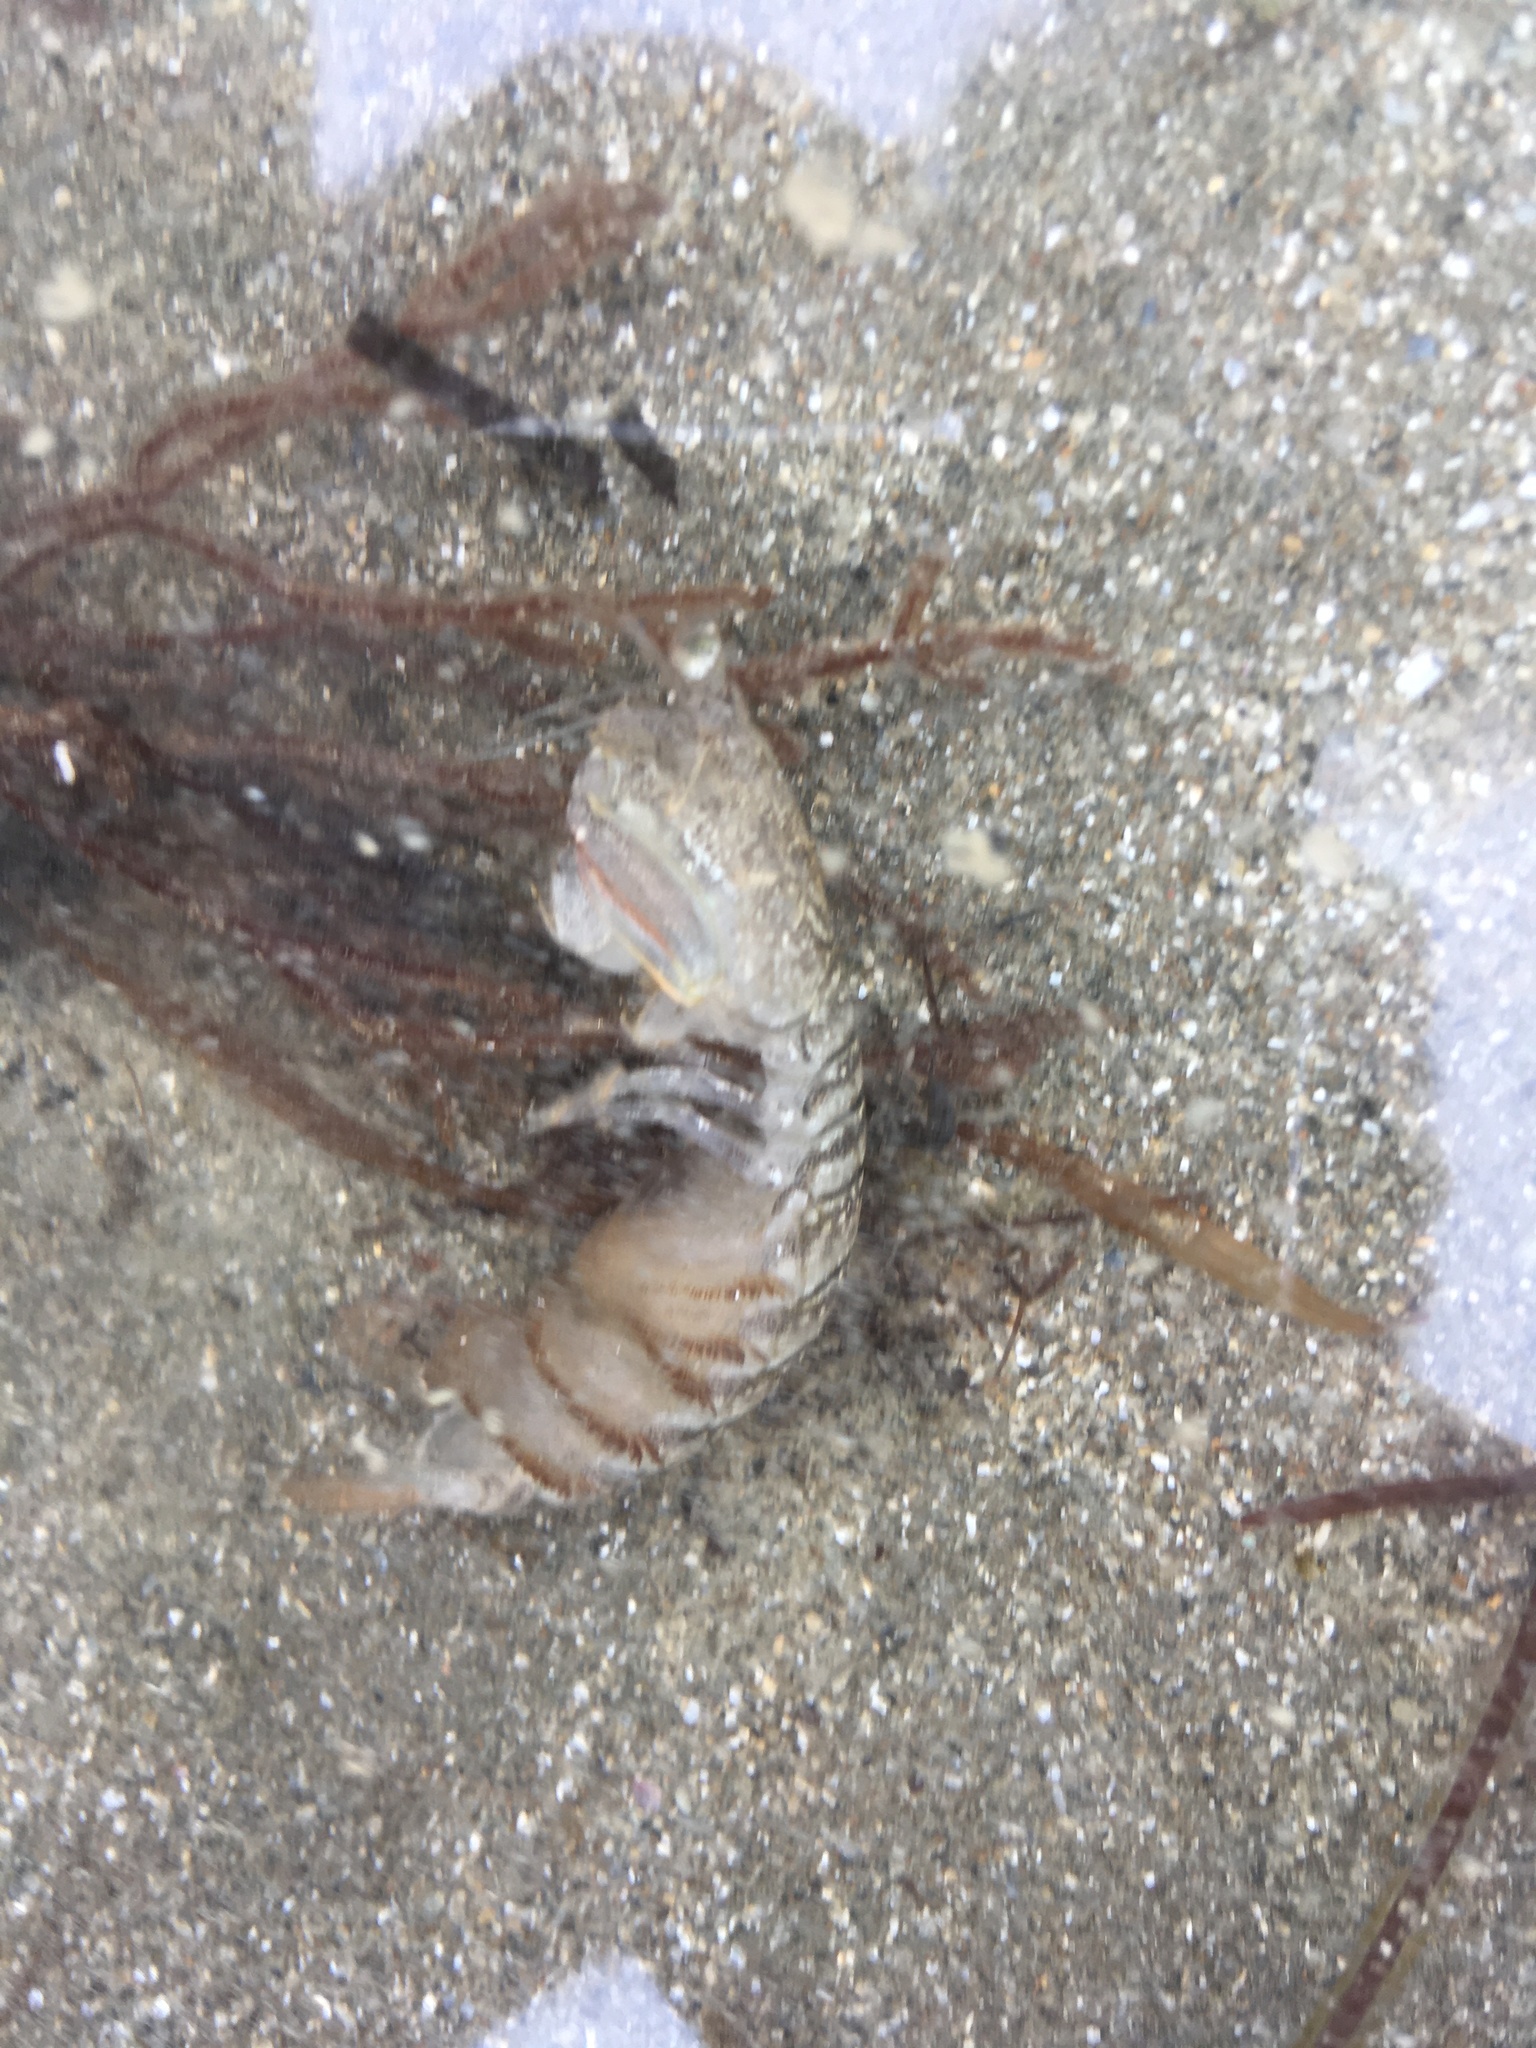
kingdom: Animalia
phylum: Arthropoda
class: Malacostraca
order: Stomatopoda
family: Tetrasquillidae
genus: Heterosquilla
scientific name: Heterosquilla tricarinata
